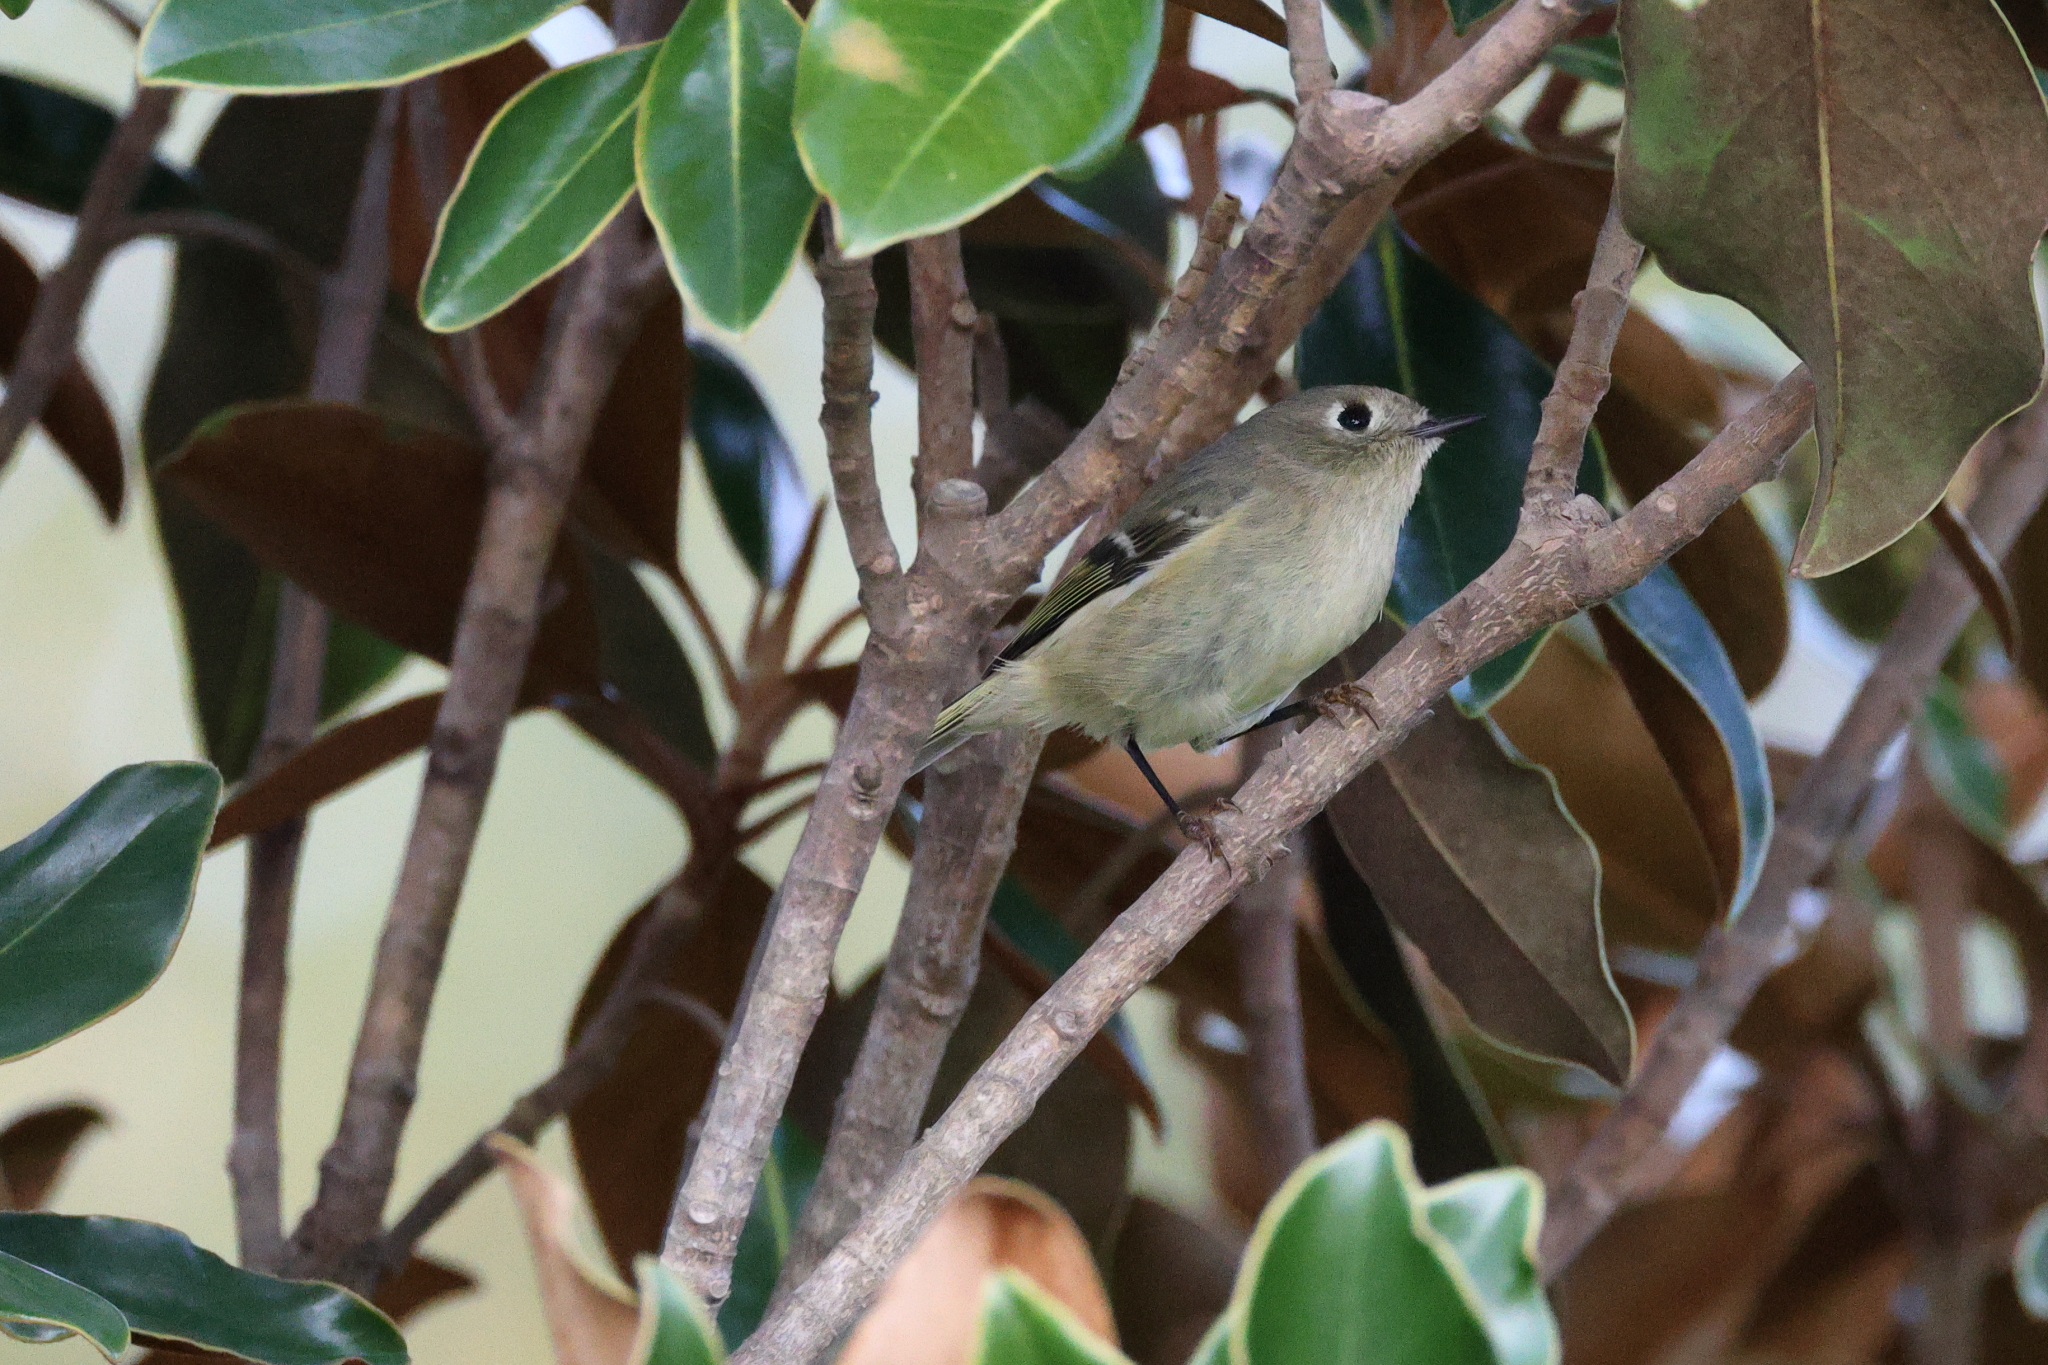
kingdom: Animalia
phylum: Chordata
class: Aves
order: Passeriformes
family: Regulidae
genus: Regulus
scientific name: Regulus calendula
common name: Ruby-crowned kinglet
